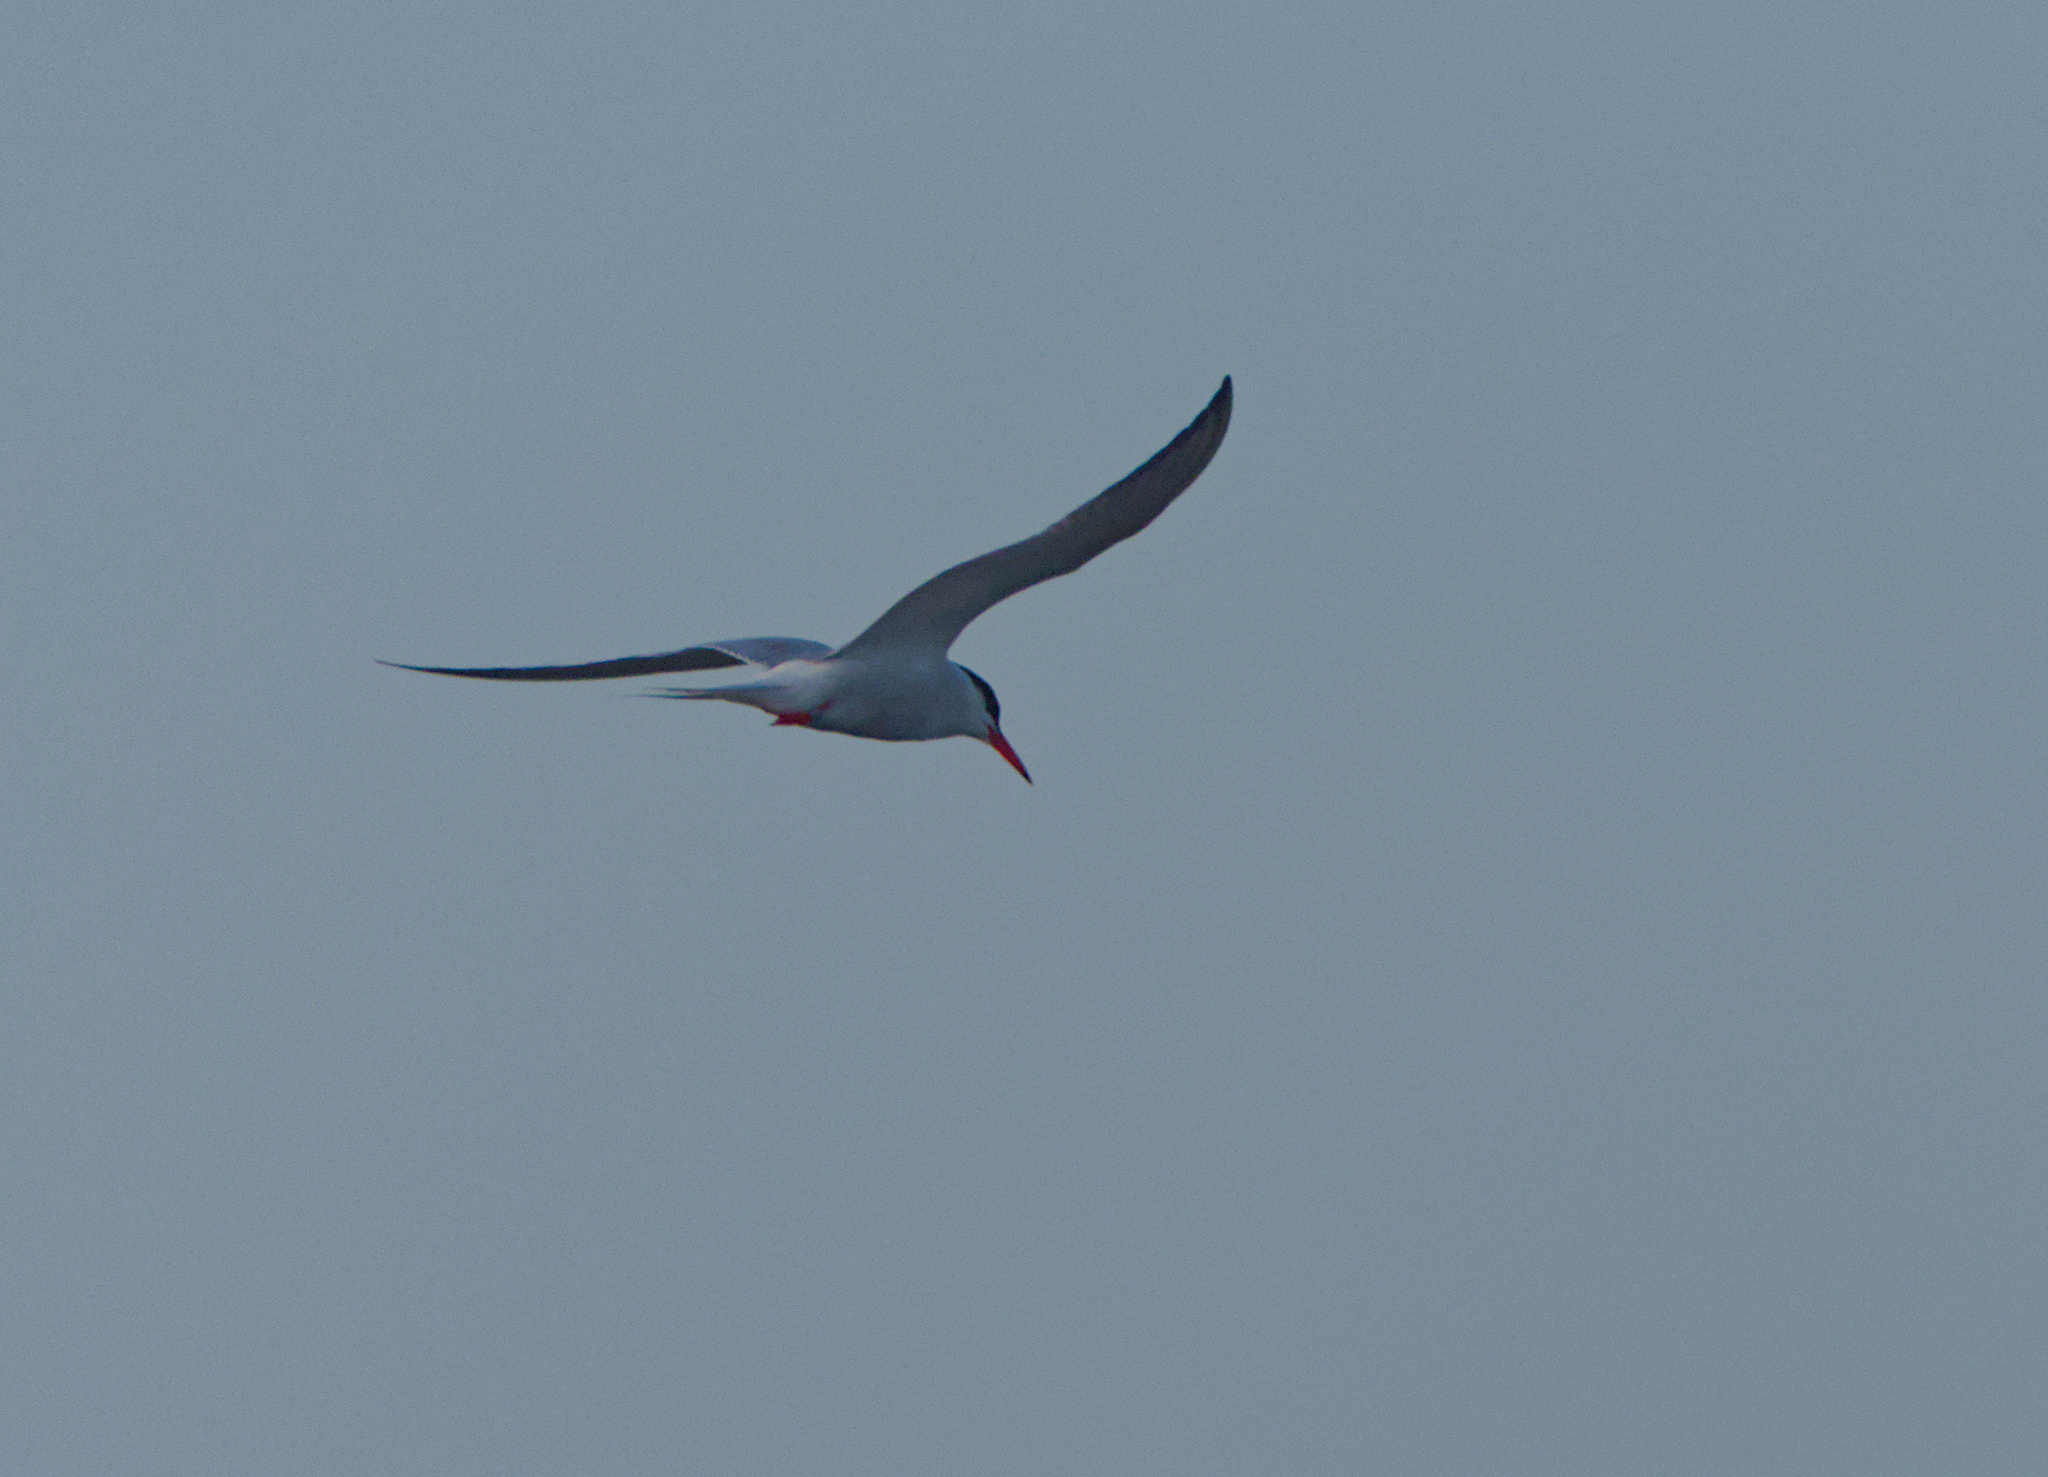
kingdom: Animalia
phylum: Chordata
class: Aves
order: Charadriiformes
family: Laridae
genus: Sterna
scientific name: Sterna hirundo
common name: Common tern
